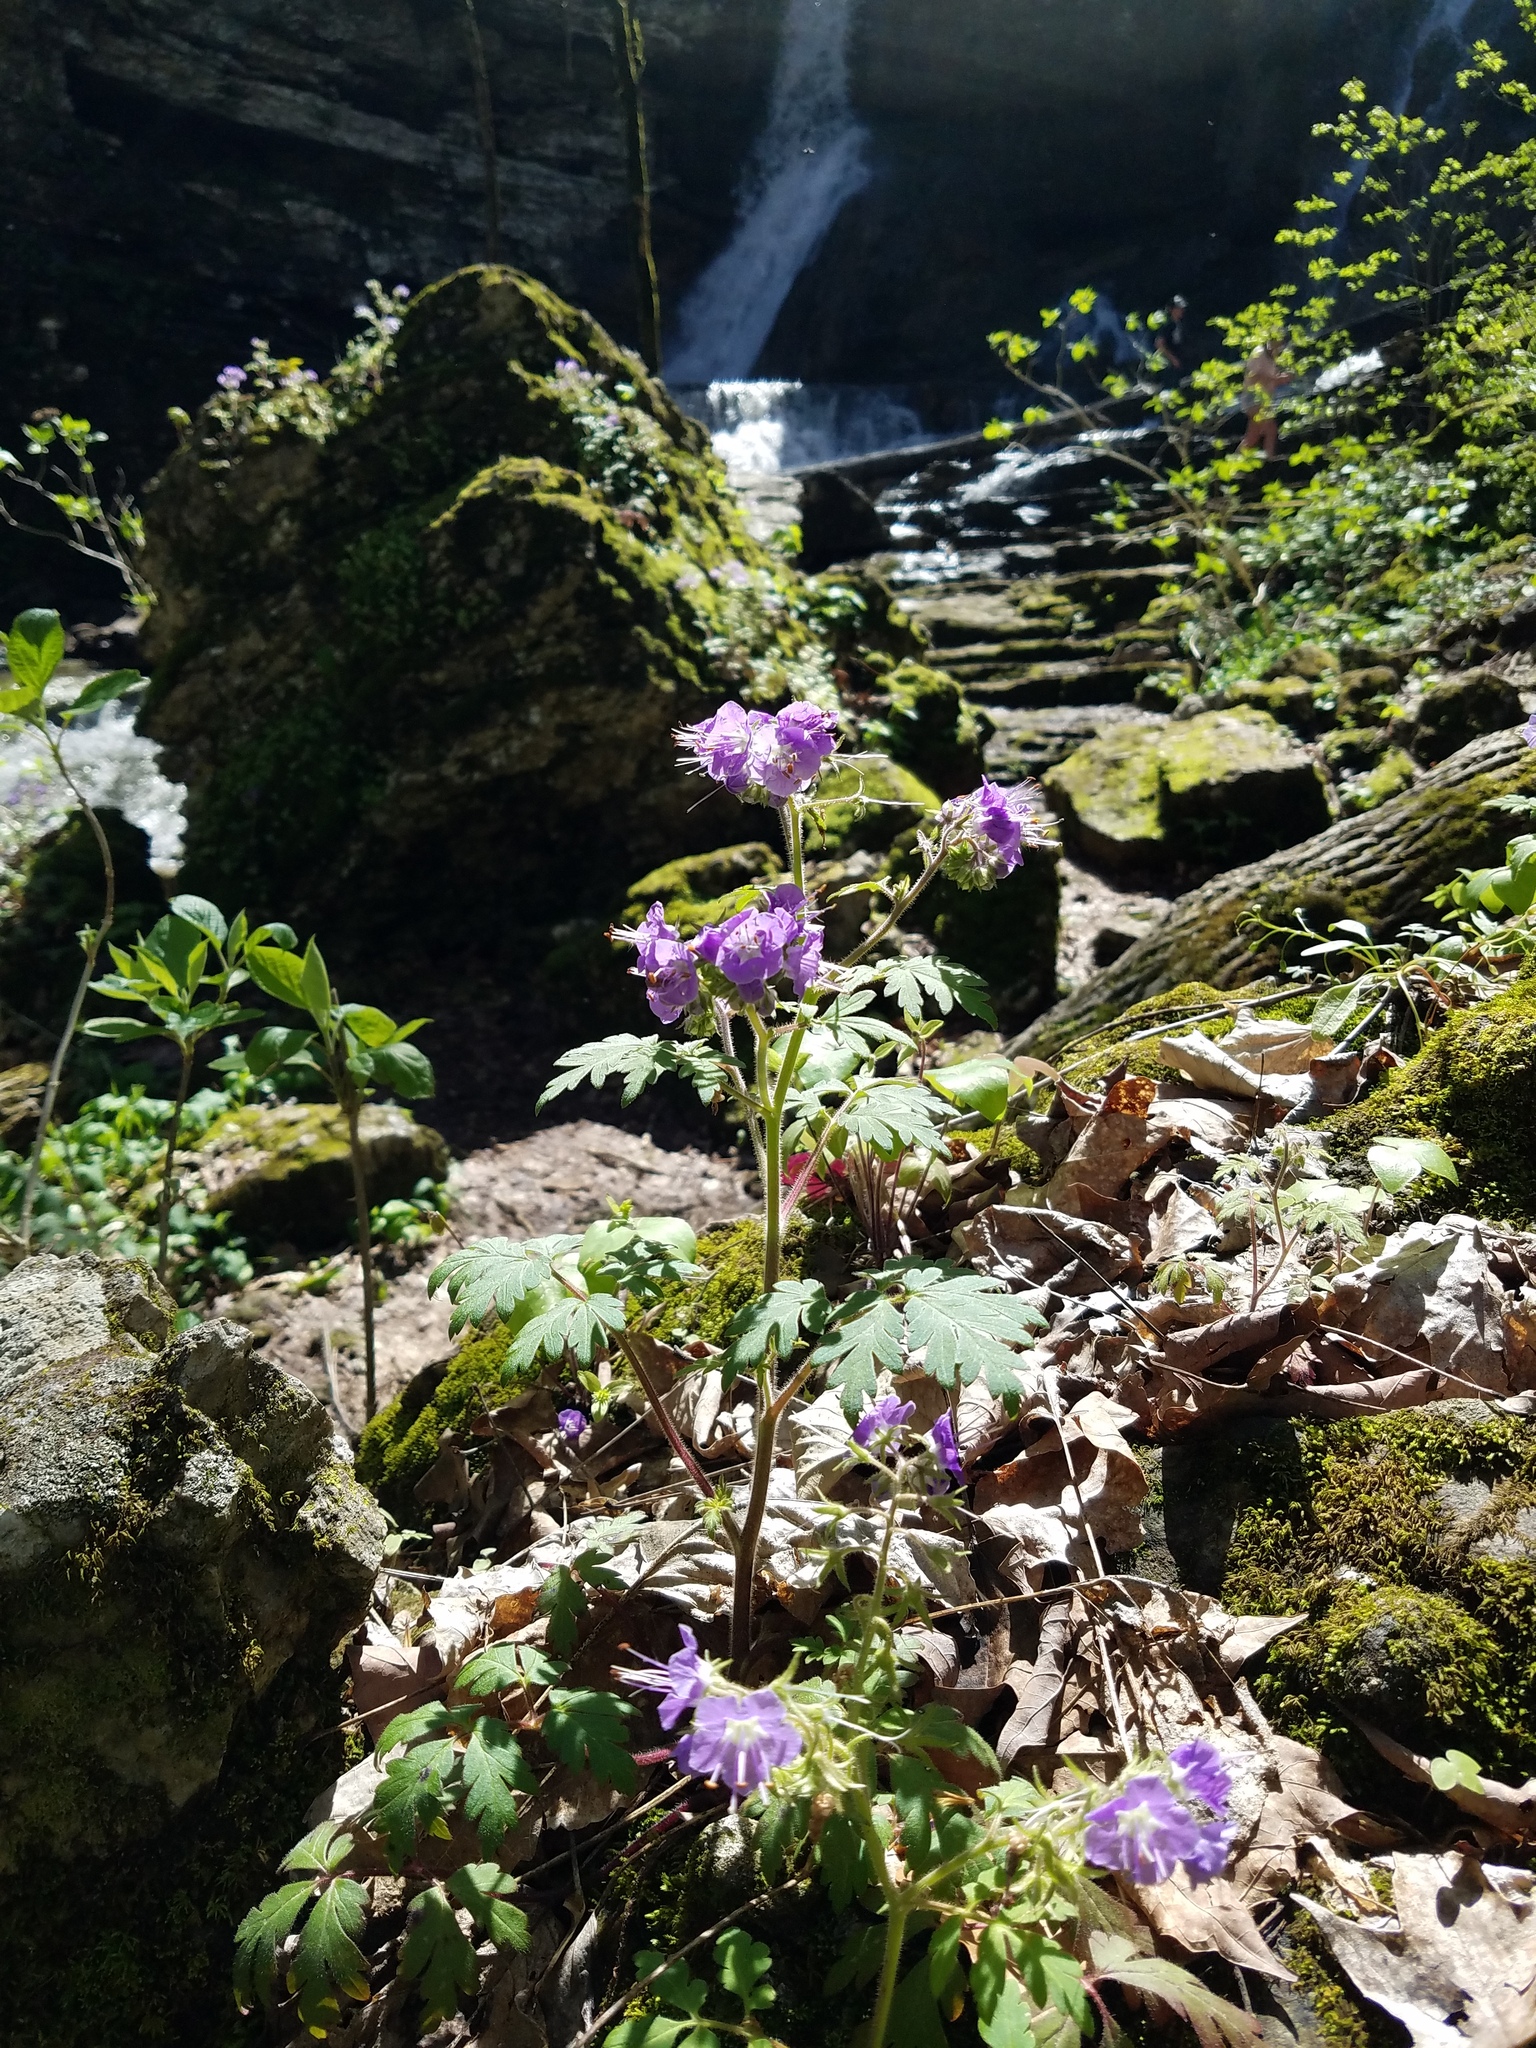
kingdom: Plantae
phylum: Tracheophyta
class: Magnoliopsida
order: Boraginales
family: Hydrophyllaceae
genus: Phacelia
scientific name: Phacelia bipinnatifida
